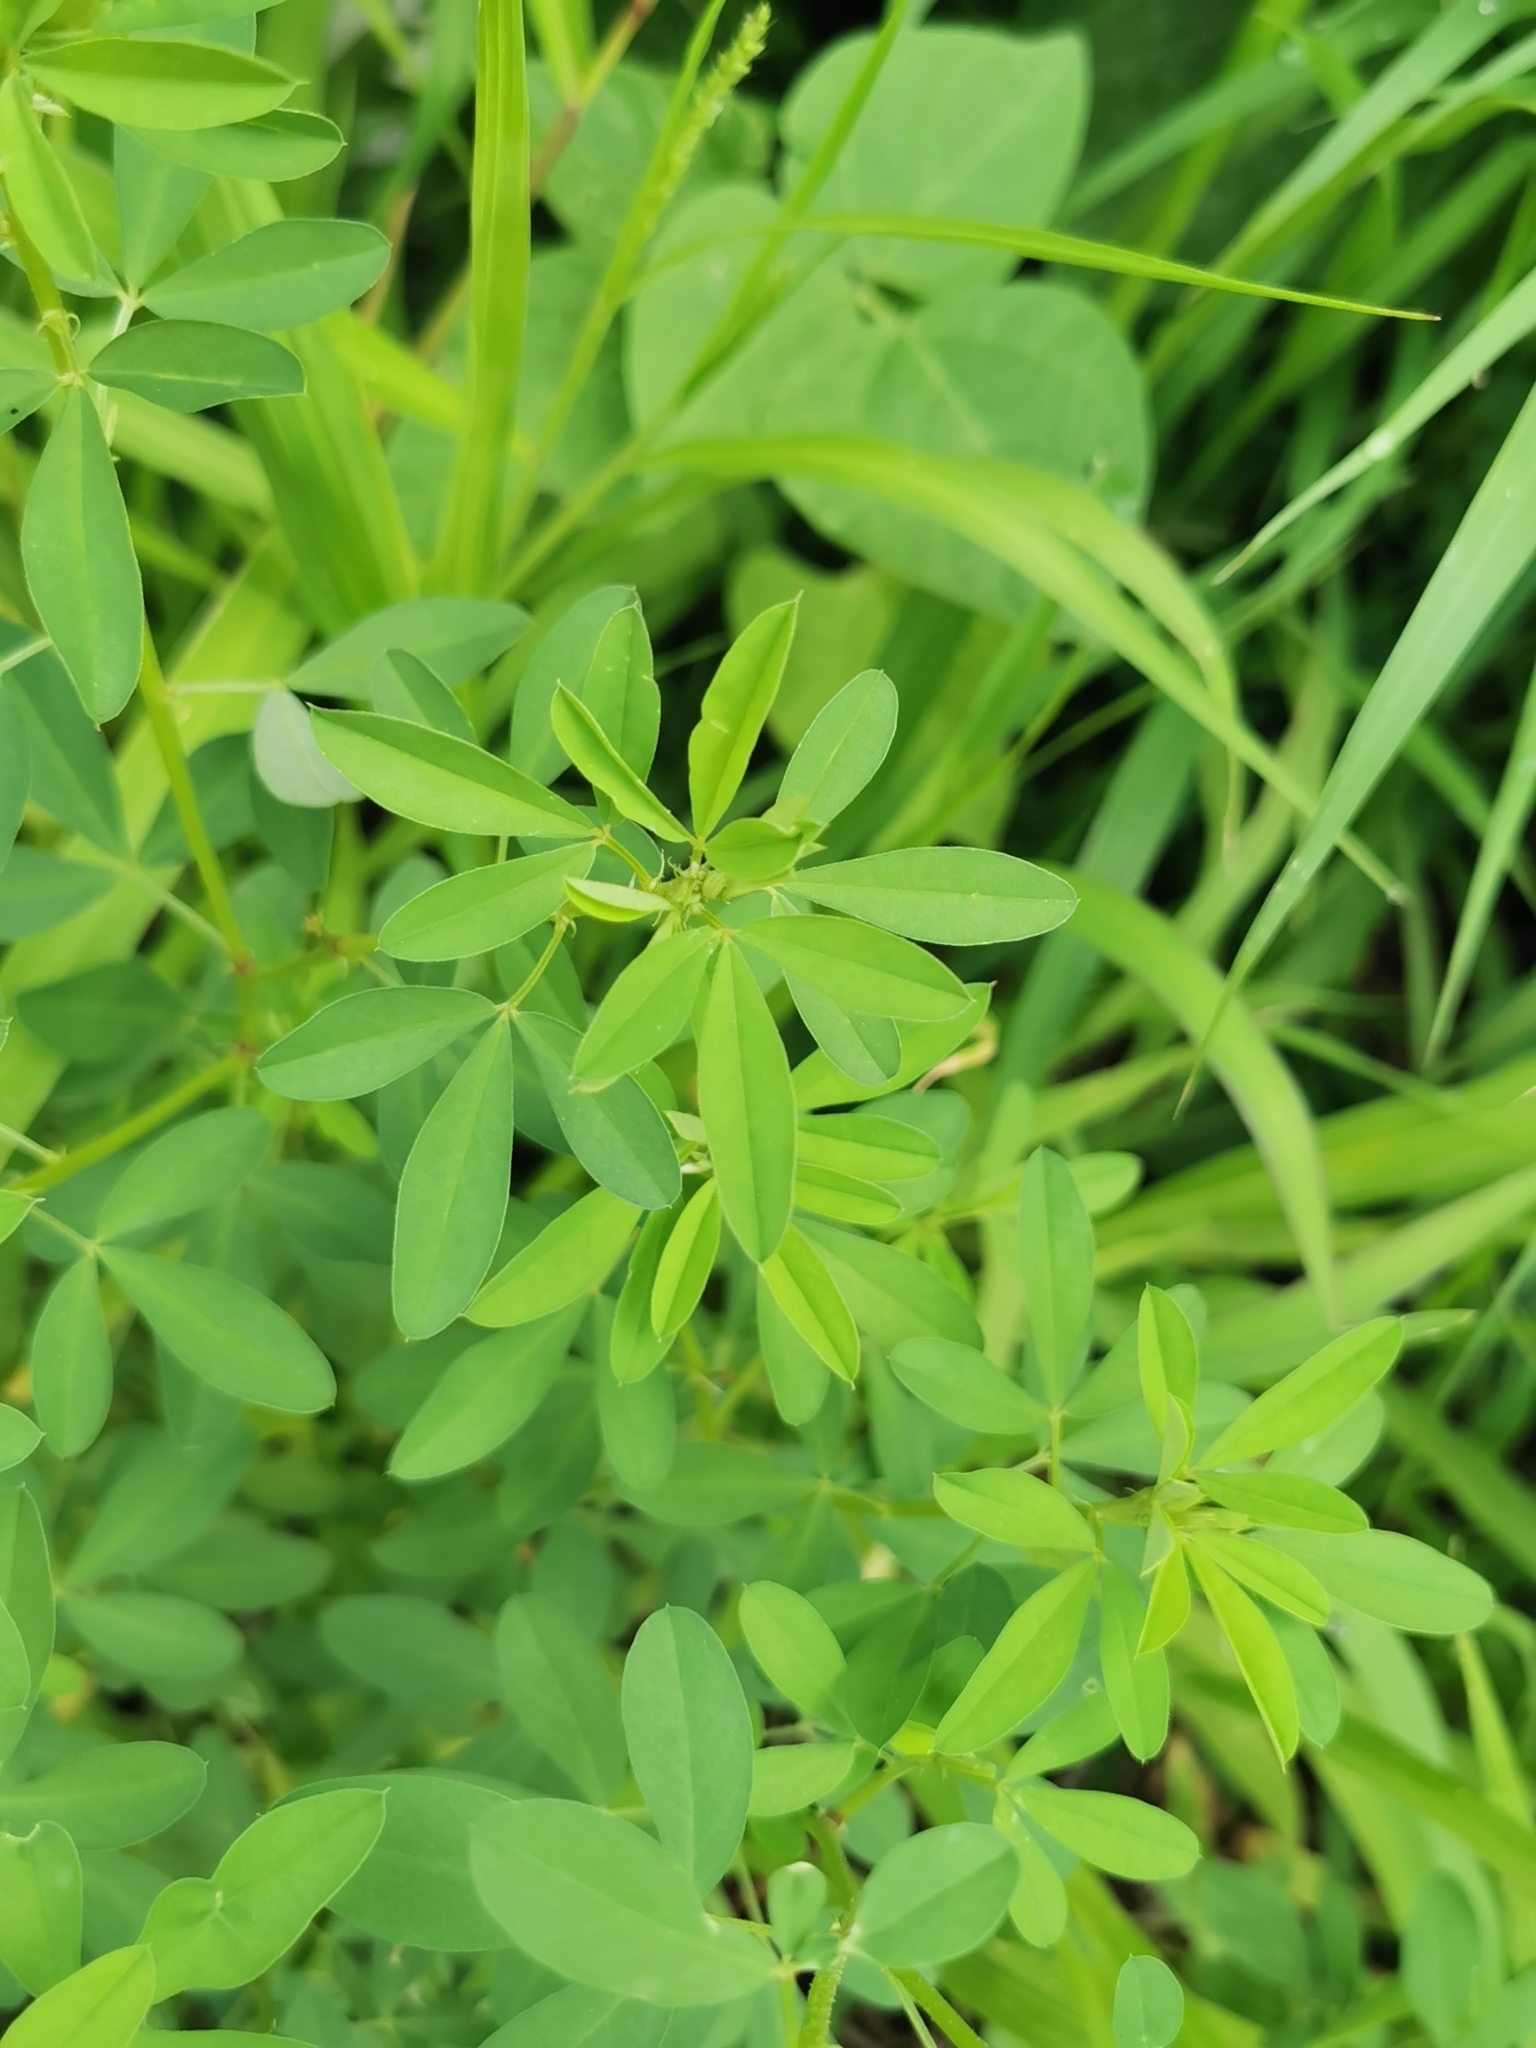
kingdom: Plantae
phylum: Tracheophyta
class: Magnoliopsida
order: Fabales
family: Fabaceae
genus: Crotalaria
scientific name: Crotalaria pumila
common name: Low rattlebox
